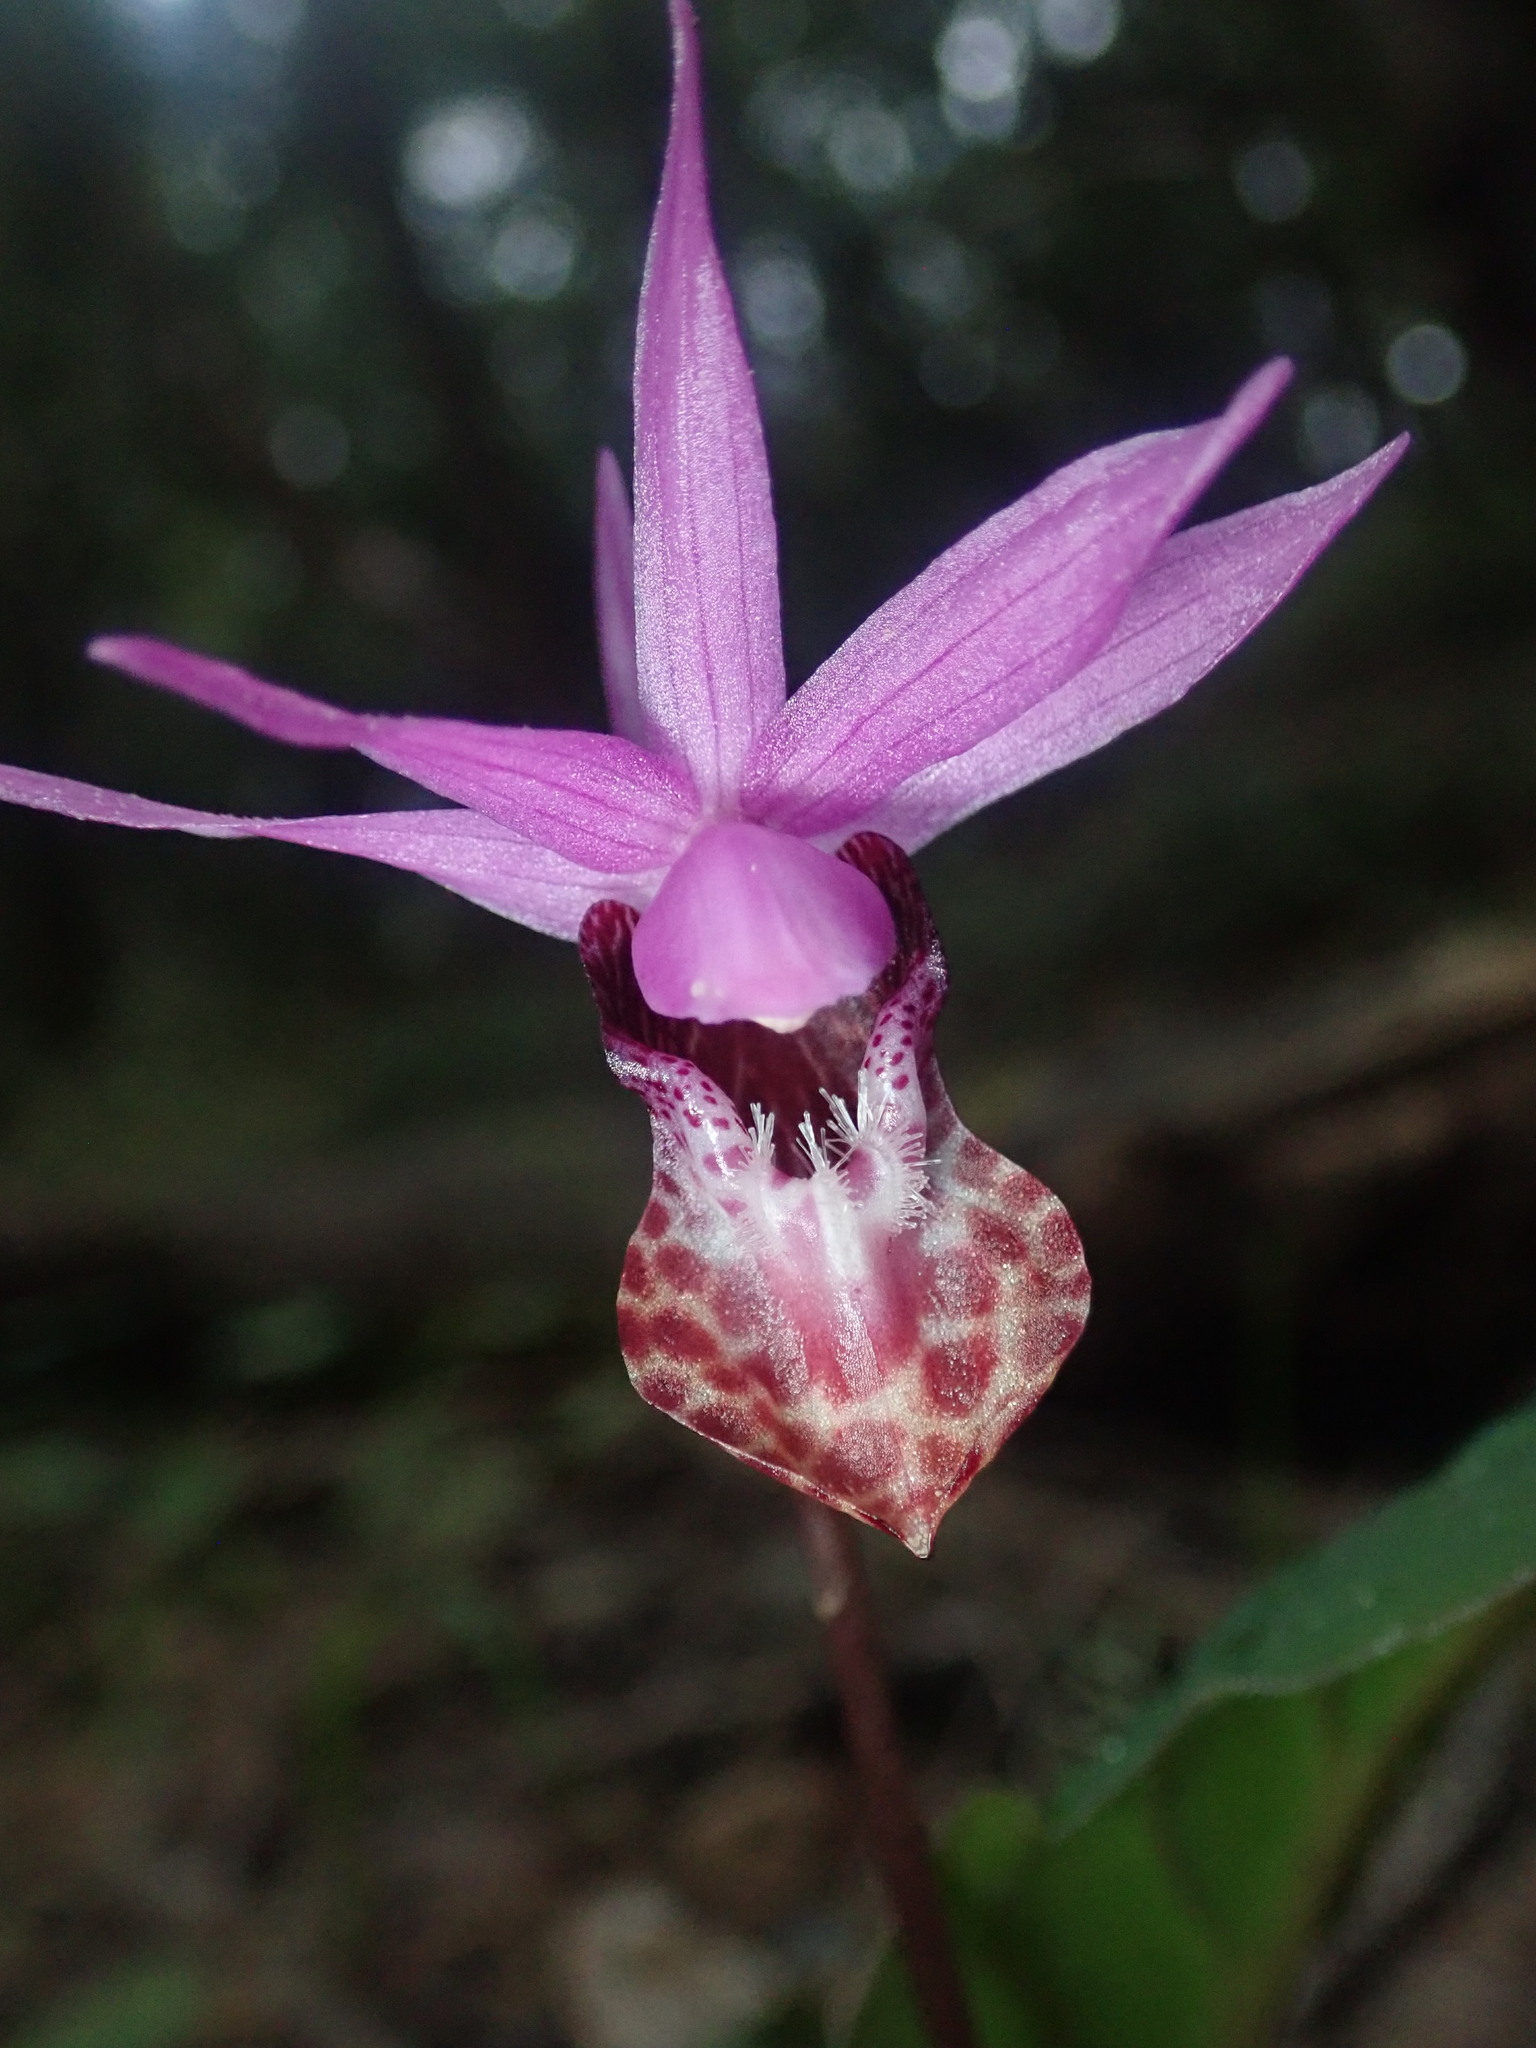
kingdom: Plantae
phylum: Tracheophyta
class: Liliopsida
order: Asparagales
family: Orchidaceae
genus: Calypso
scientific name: Calypso bulbosa
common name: Calypso
